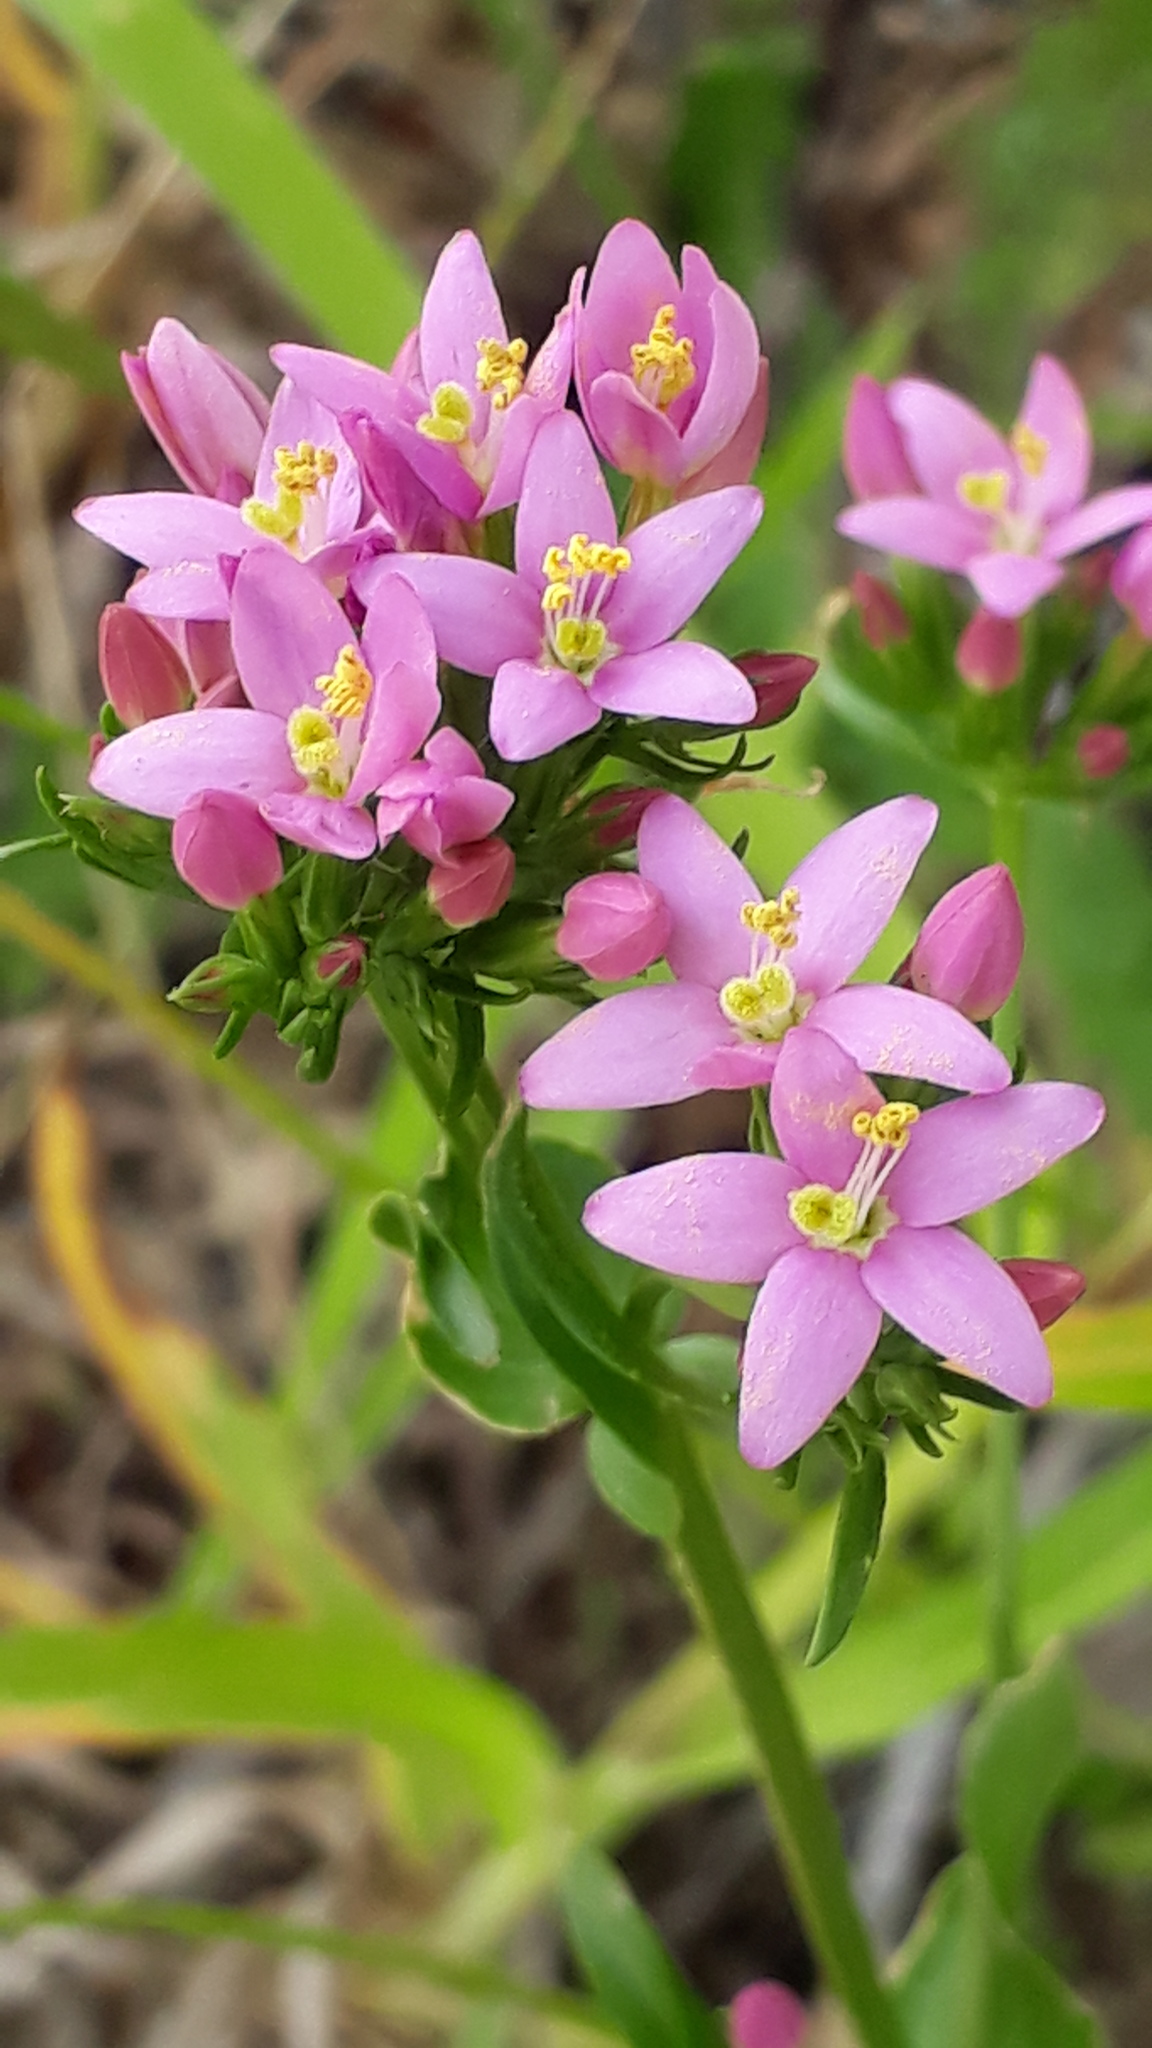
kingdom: Plantae
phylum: Tracheophyta
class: Magnoliopsida
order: Gentianales
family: Gentianaceae
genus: Centaurium
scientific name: Centaurium erythraea
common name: Common centaury
